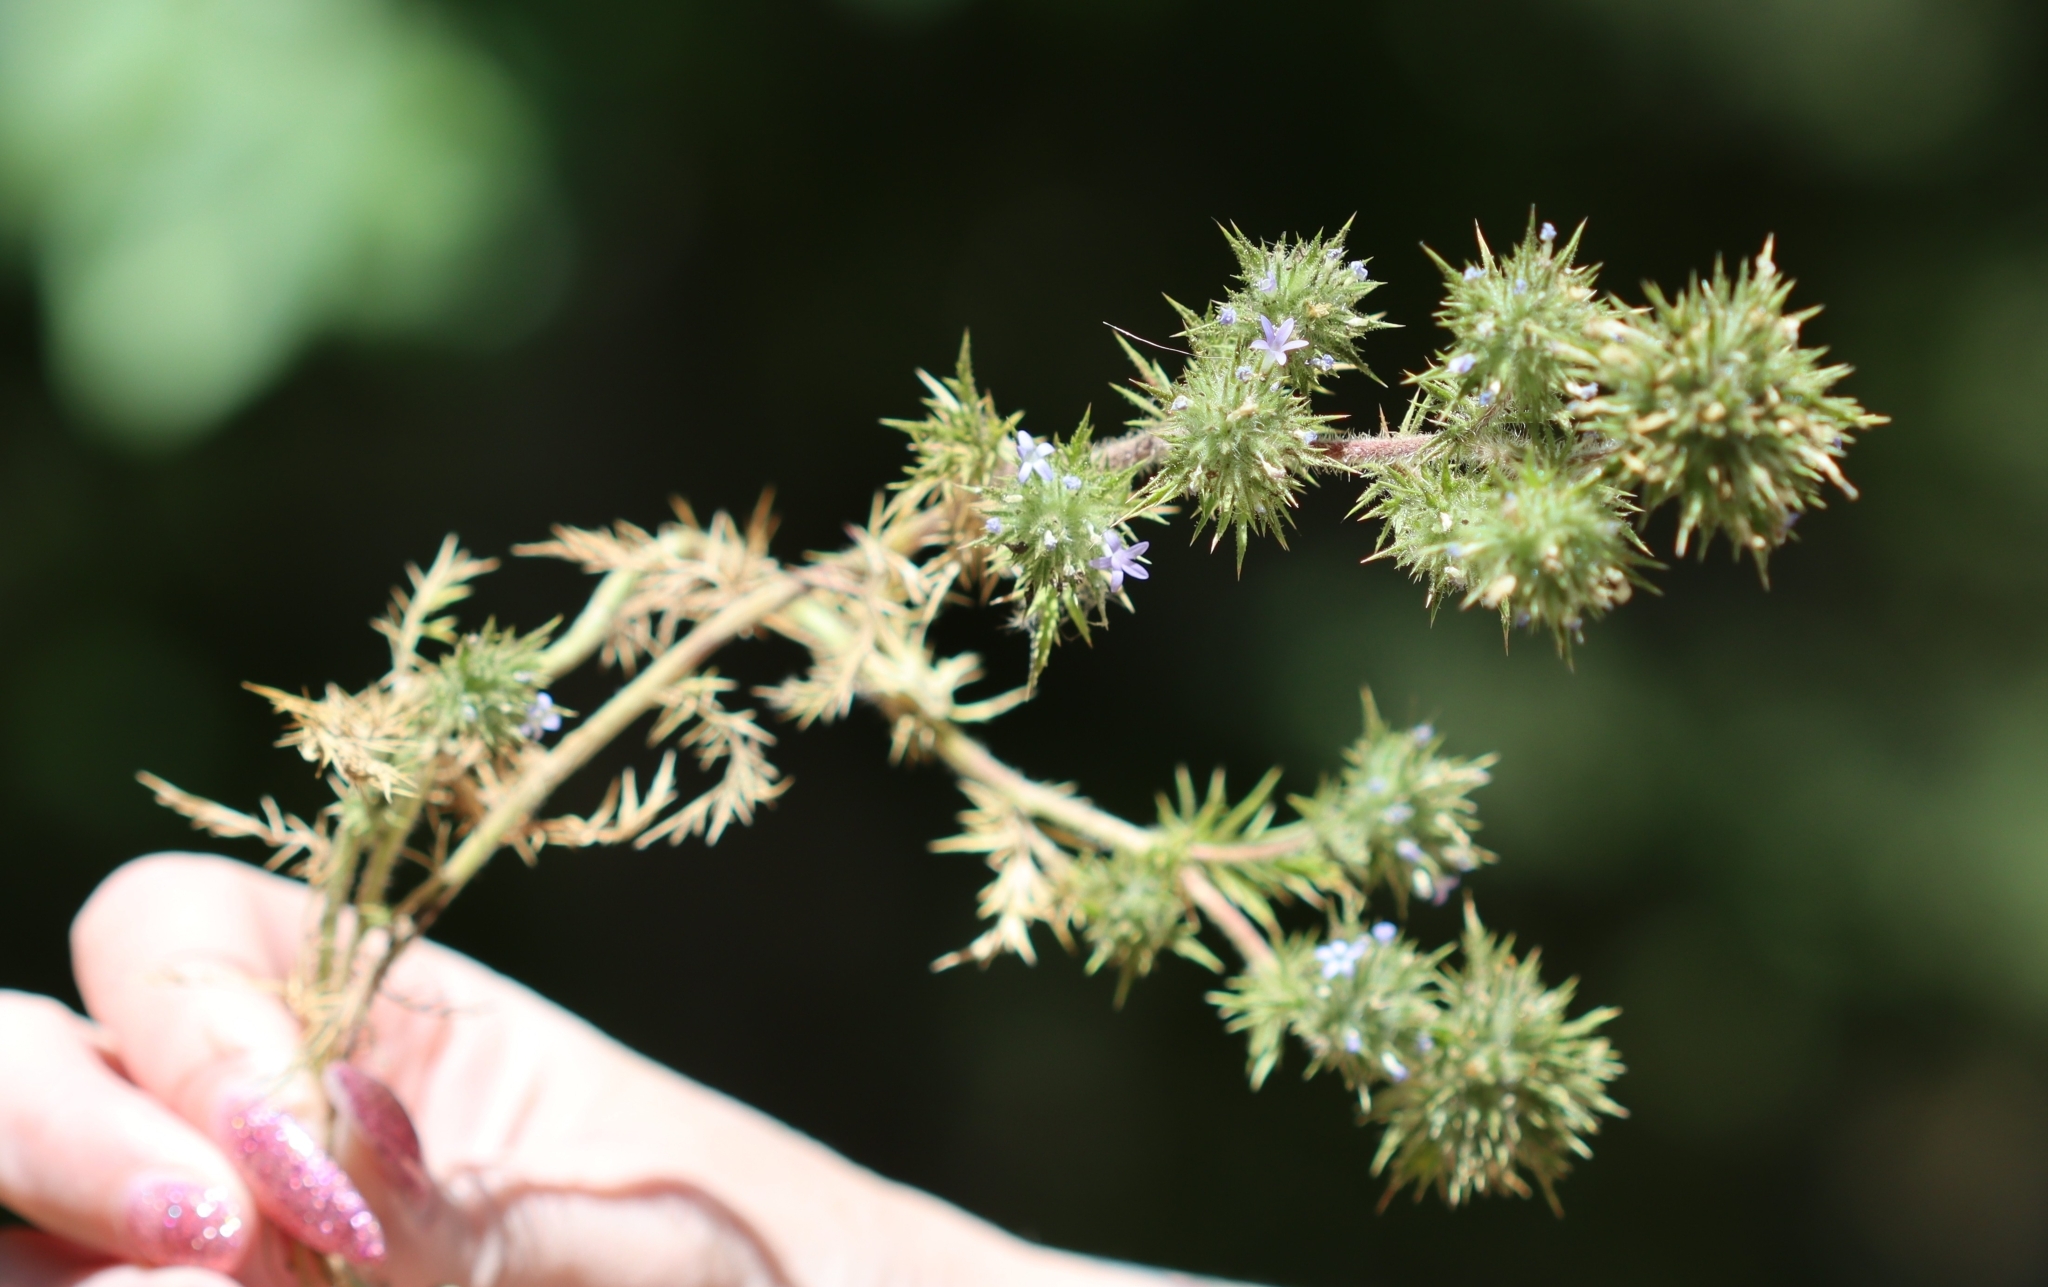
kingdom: Plantae
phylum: Tracheophyta
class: Magnoliopsida
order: Ericales
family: Polemoniaceae
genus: Navarretia
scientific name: Navarretia squarrosa
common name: Skunkweed
